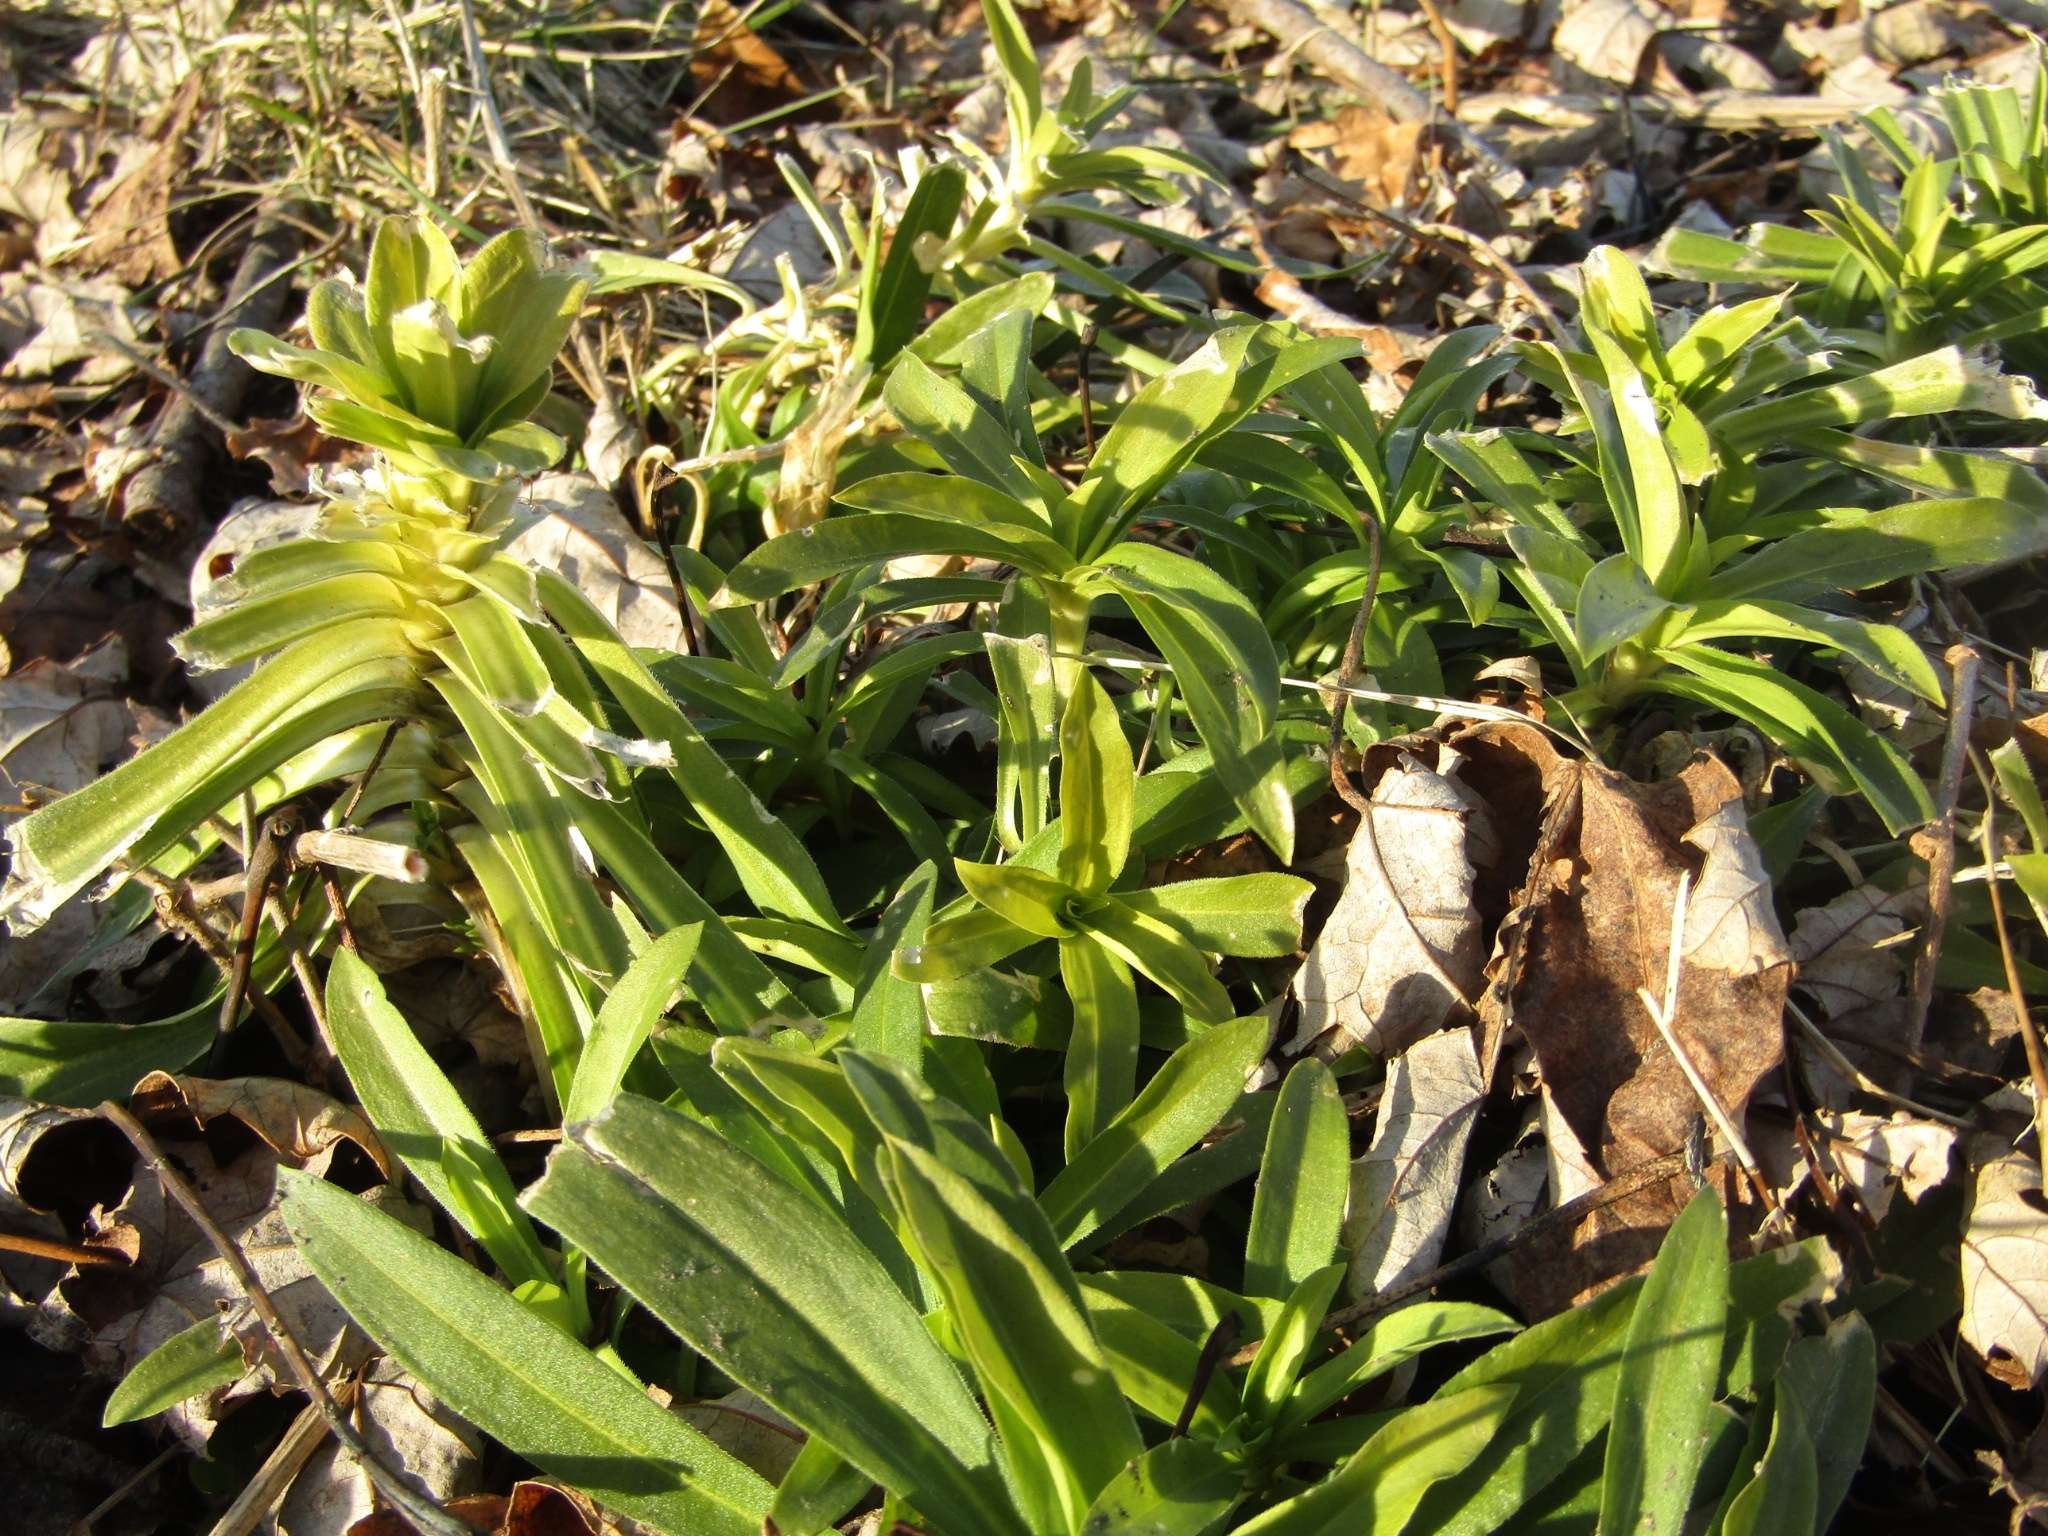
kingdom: Plantae
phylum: Tracheophyta
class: Magnoliopsida
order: Caryophyllales
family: Caryophyllaceae
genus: Dianthus
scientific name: Dianthus barbatus
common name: Sweet-william
